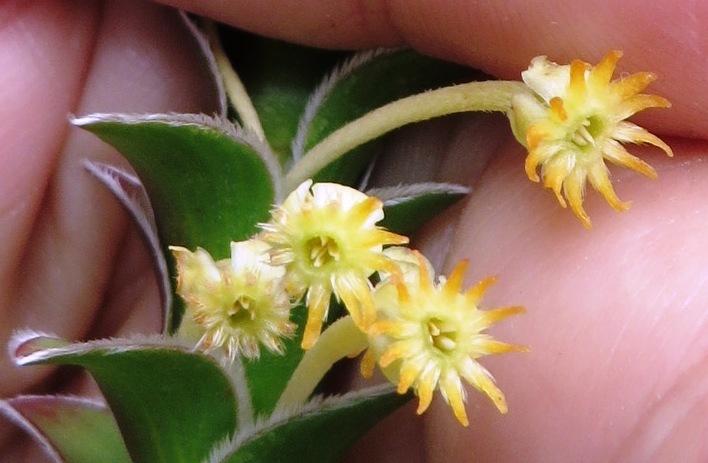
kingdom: Plantae
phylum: Tracheophyta
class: Magnoliopsida
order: Malvales
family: Thymelaeaceae
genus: Struthiola
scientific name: Struthiola argentea
